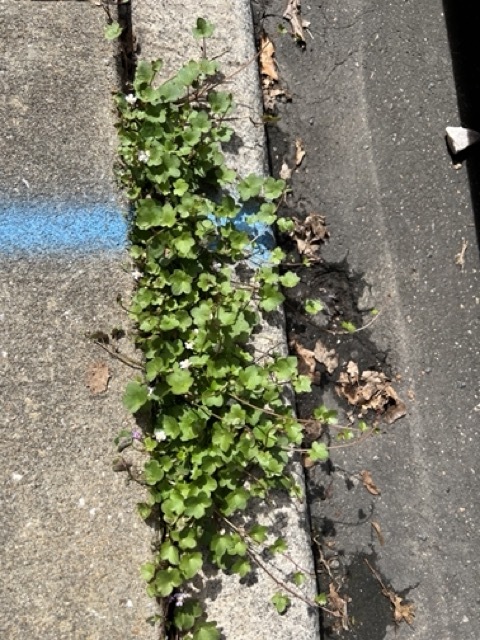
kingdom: Plantae
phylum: Tracheophyta
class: Magnoliopsida
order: Lamiales
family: Plantaginaceae
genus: Cymbalaria
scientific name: Cymbalaria muralis
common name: Ivy-leaved toadflax
